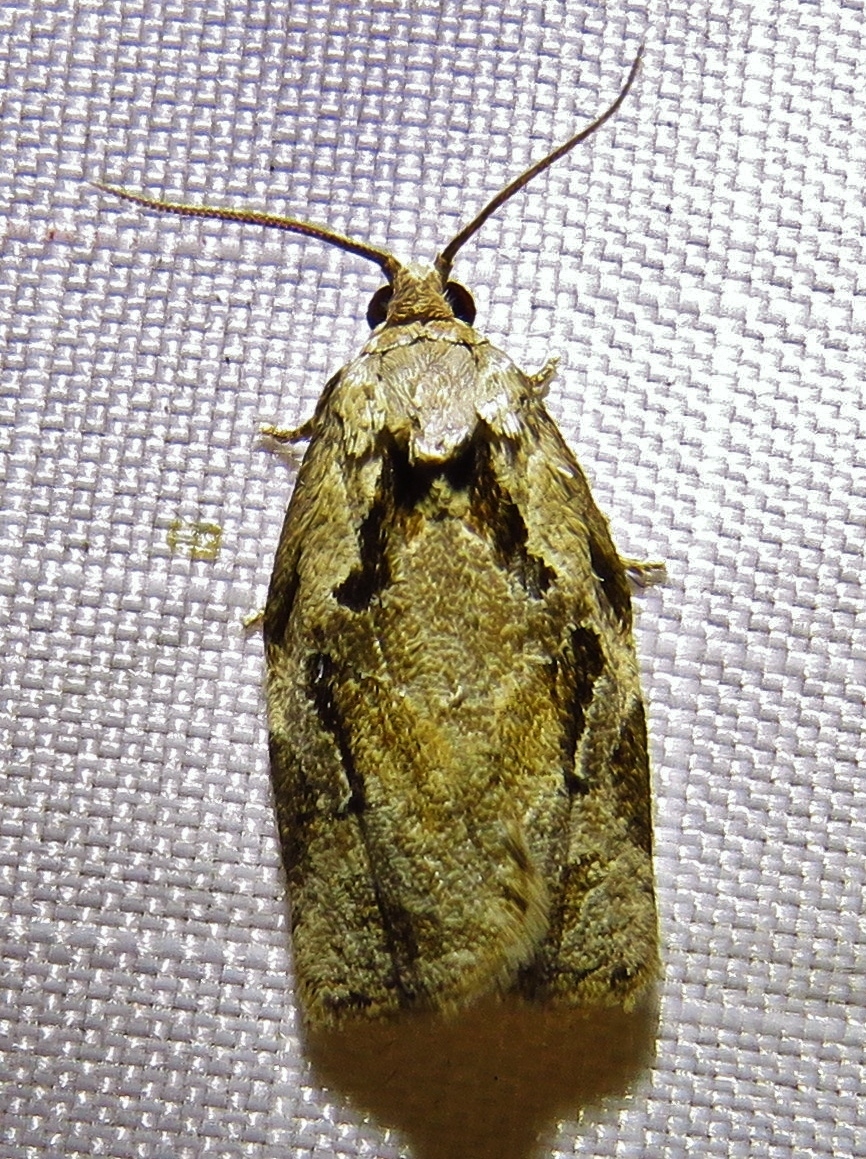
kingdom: Animalia
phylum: Arthropoda
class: Insecta
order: Lepidoptera
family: Tortricidae
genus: Archips
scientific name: Archips grisea
